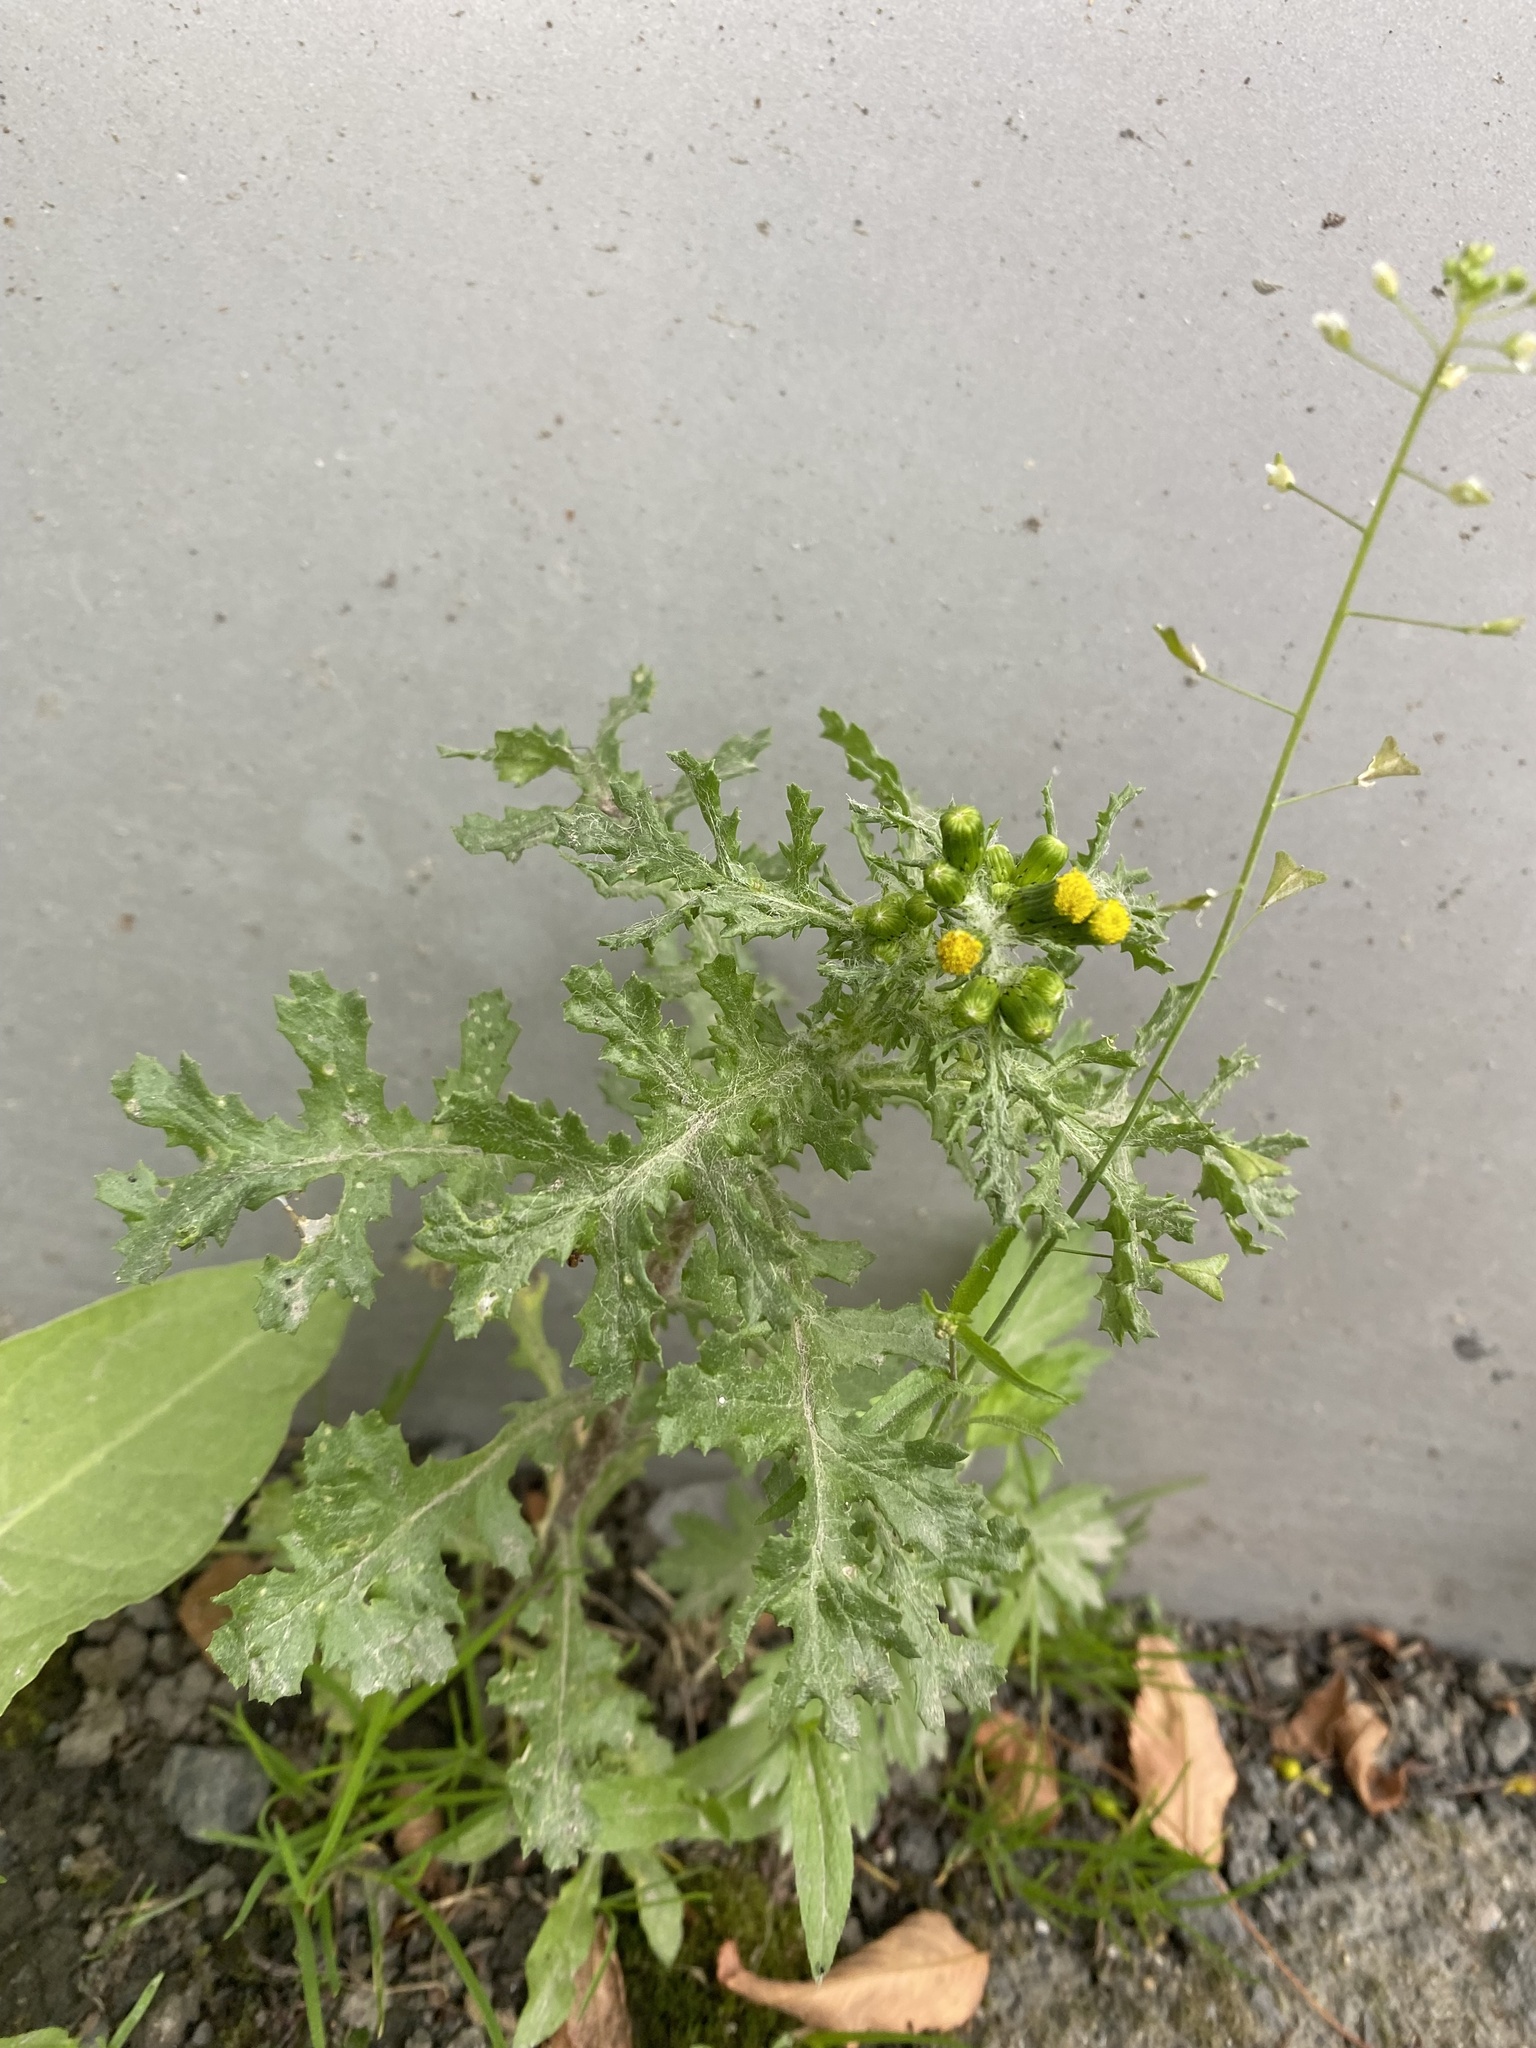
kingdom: Plantae
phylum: Tracheophyta
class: Magnoliopsida
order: Asterales
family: Asteraceae
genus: Senecio
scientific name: Senecio vulgaris
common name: Old-man-in-the-spring
